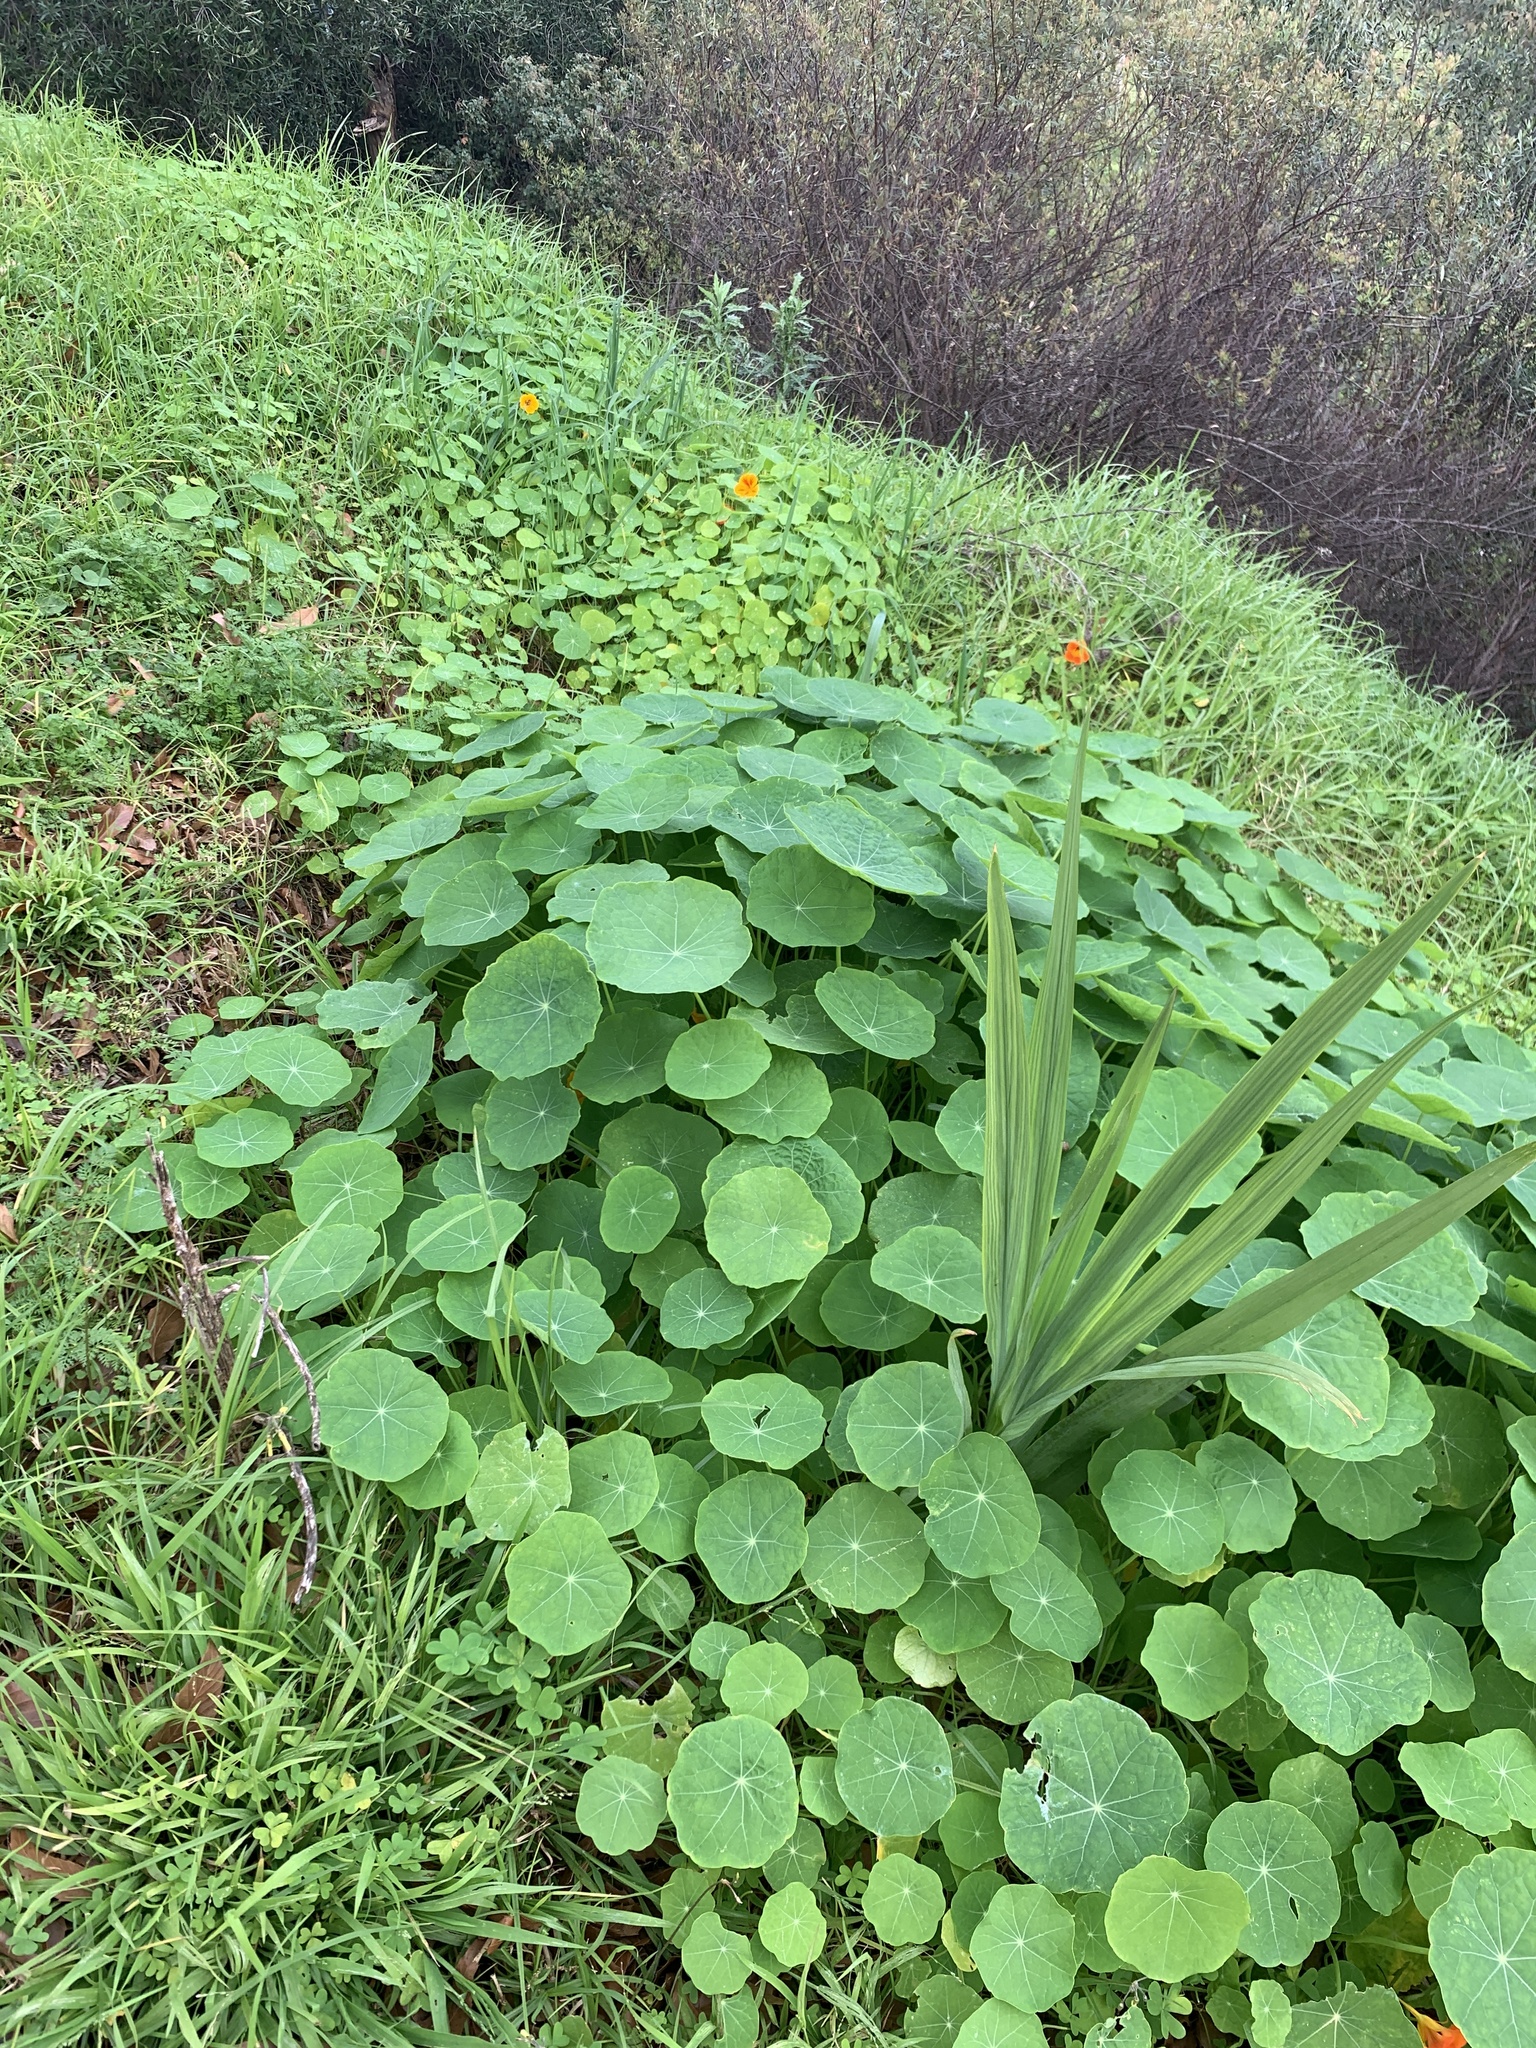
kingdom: Plantae
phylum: Tracheophyta
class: Magnoliopsida
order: Brassicales
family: Tropaeolaceae
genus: Tropaeolum
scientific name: Tropaeolum majus
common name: Nasturtium
